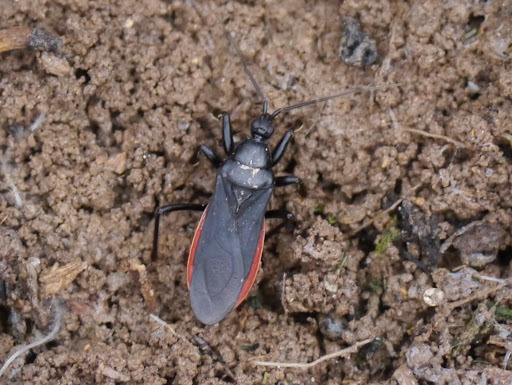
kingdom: Animalia
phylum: Arthropoda
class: Insecta
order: Hemiptera
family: Reduviidae
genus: Melanolestes
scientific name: Melanolestes picipes
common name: Assassin bug
